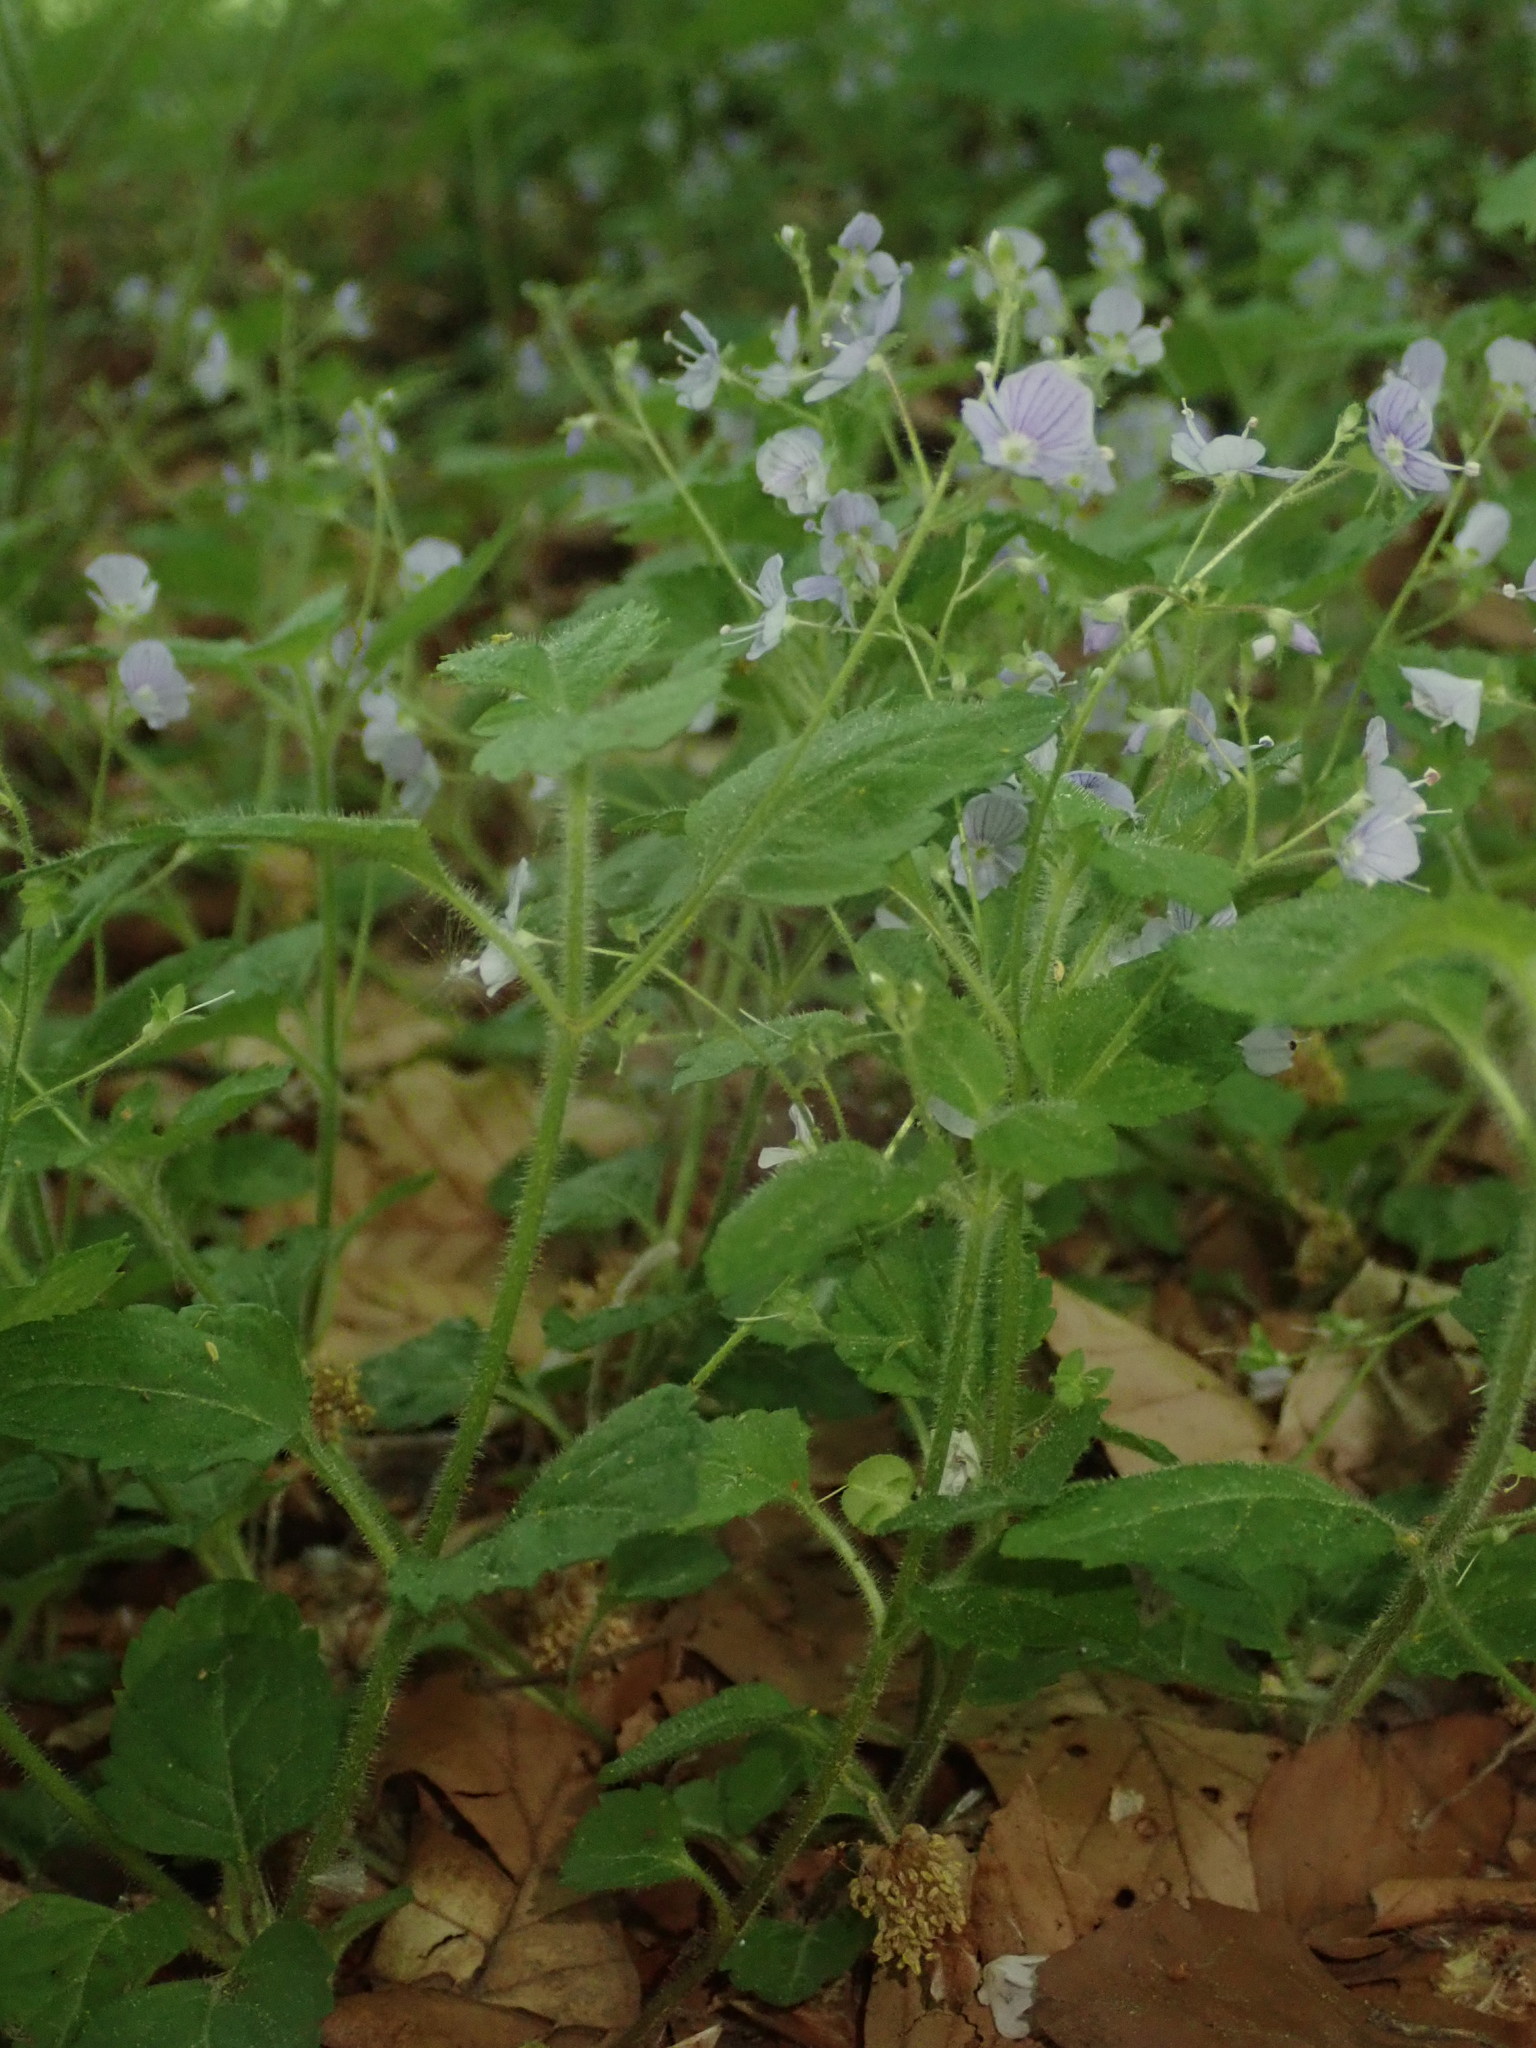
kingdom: Plantae
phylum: Tracheophyta
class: Magnoliopsida
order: Lamiales
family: Plantaginaceae
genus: Veronica
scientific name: Veronica montana
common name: Wood speedwell
